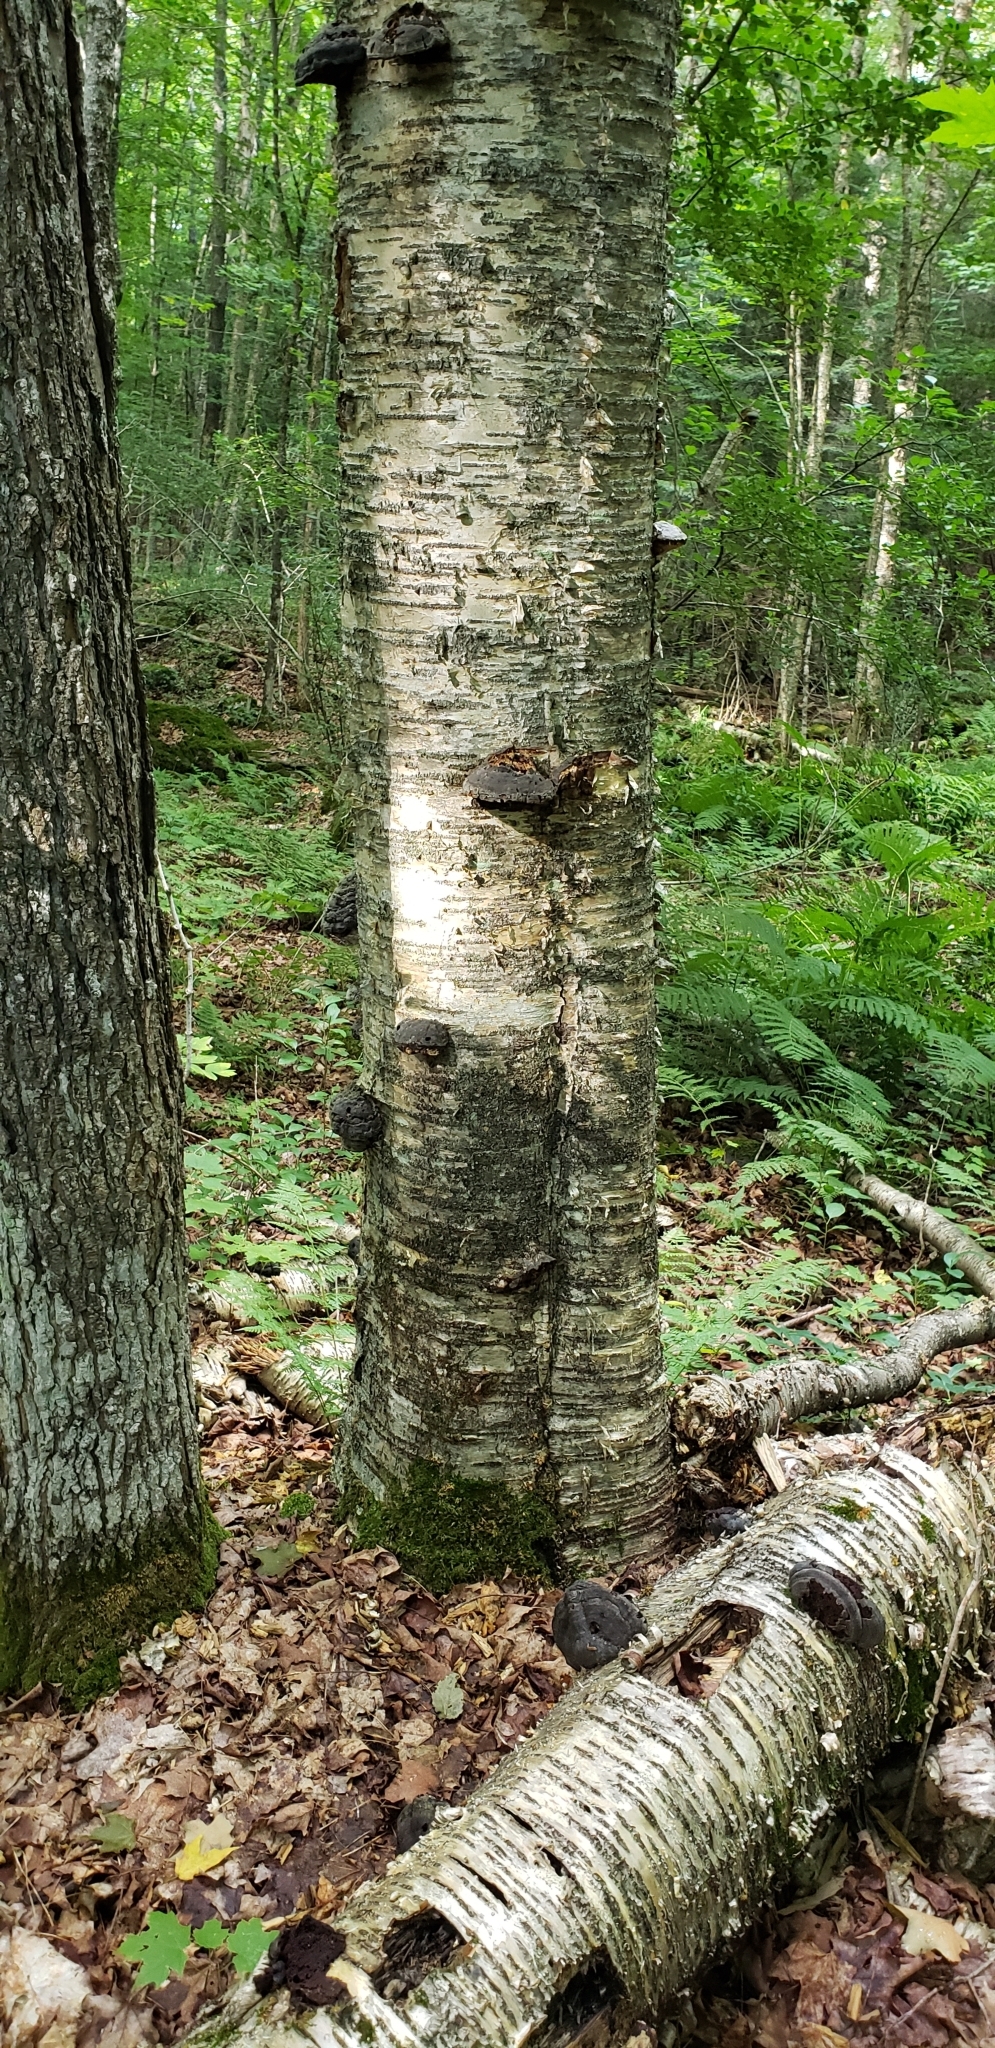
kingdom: Fungi
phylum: Basidiomycota
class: Agaricomycetes
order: Polyporales
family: Polyporaceae
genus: Fomes
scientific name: Fomes fomentarius
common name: Hoof fungus
